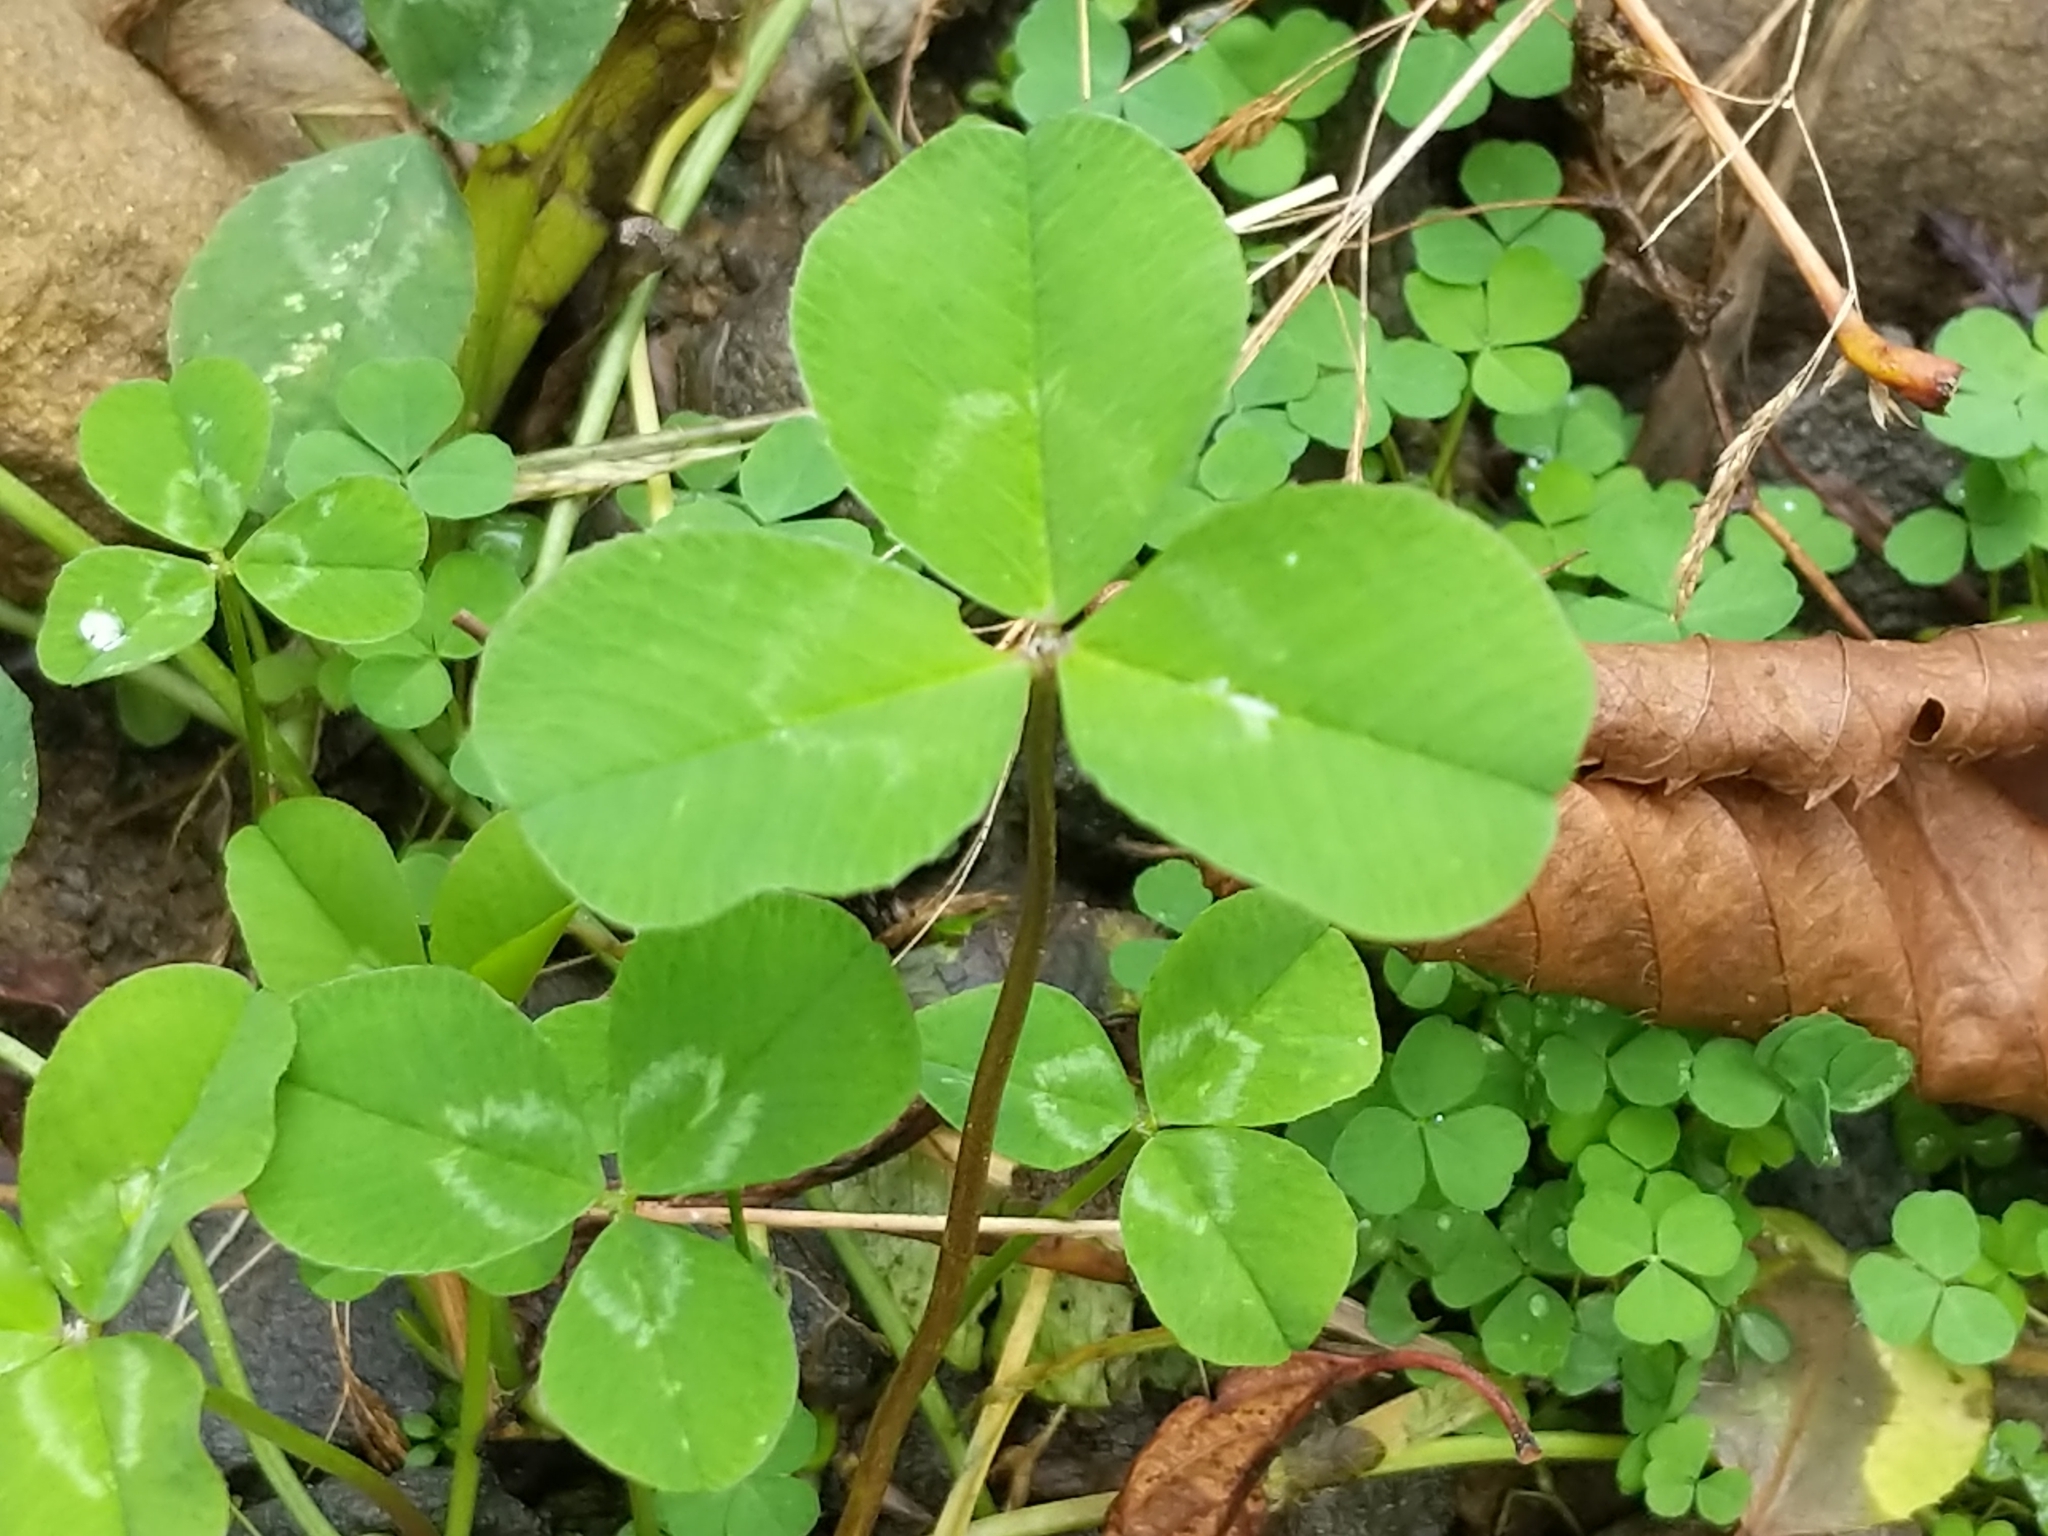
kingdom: Plantae
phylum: Tracheophyta
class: Magnoliopsida
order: Fabales
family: Fabaceae
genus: Trifolium
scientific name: Trifolium repens
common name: White clover
